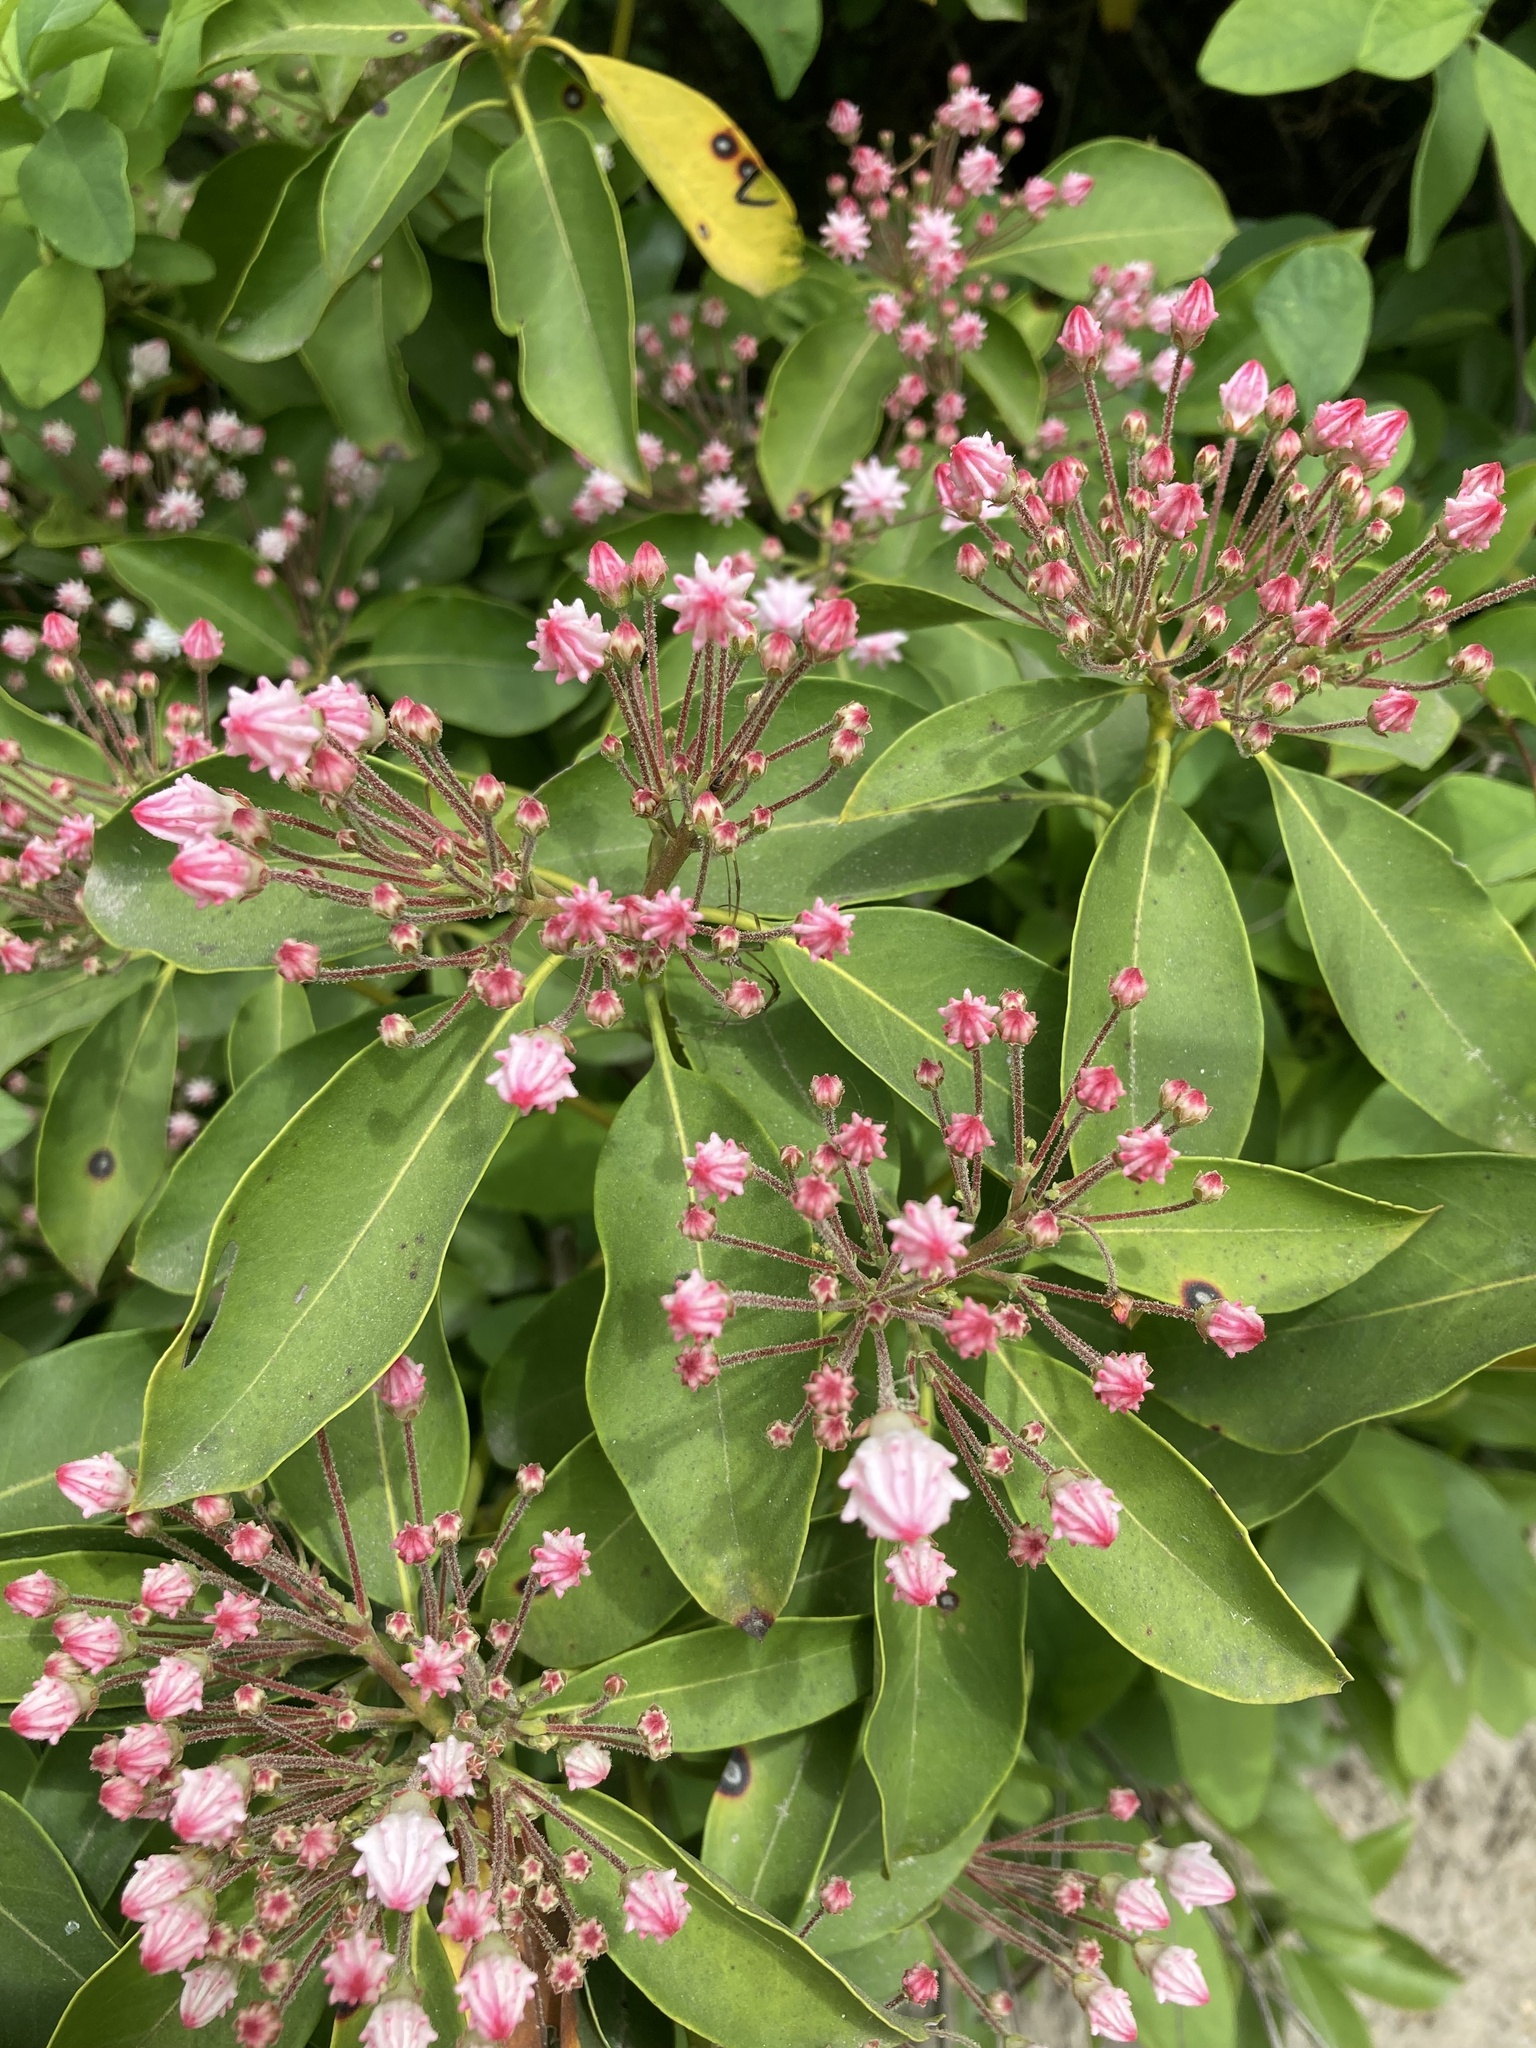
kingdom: Plantae
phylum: Tracheophyta
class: Magnoliopsida
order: Ericales
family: Ericaceae
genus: Kalmia
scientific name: Kalmia latifolia
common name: Mountain-laurel
